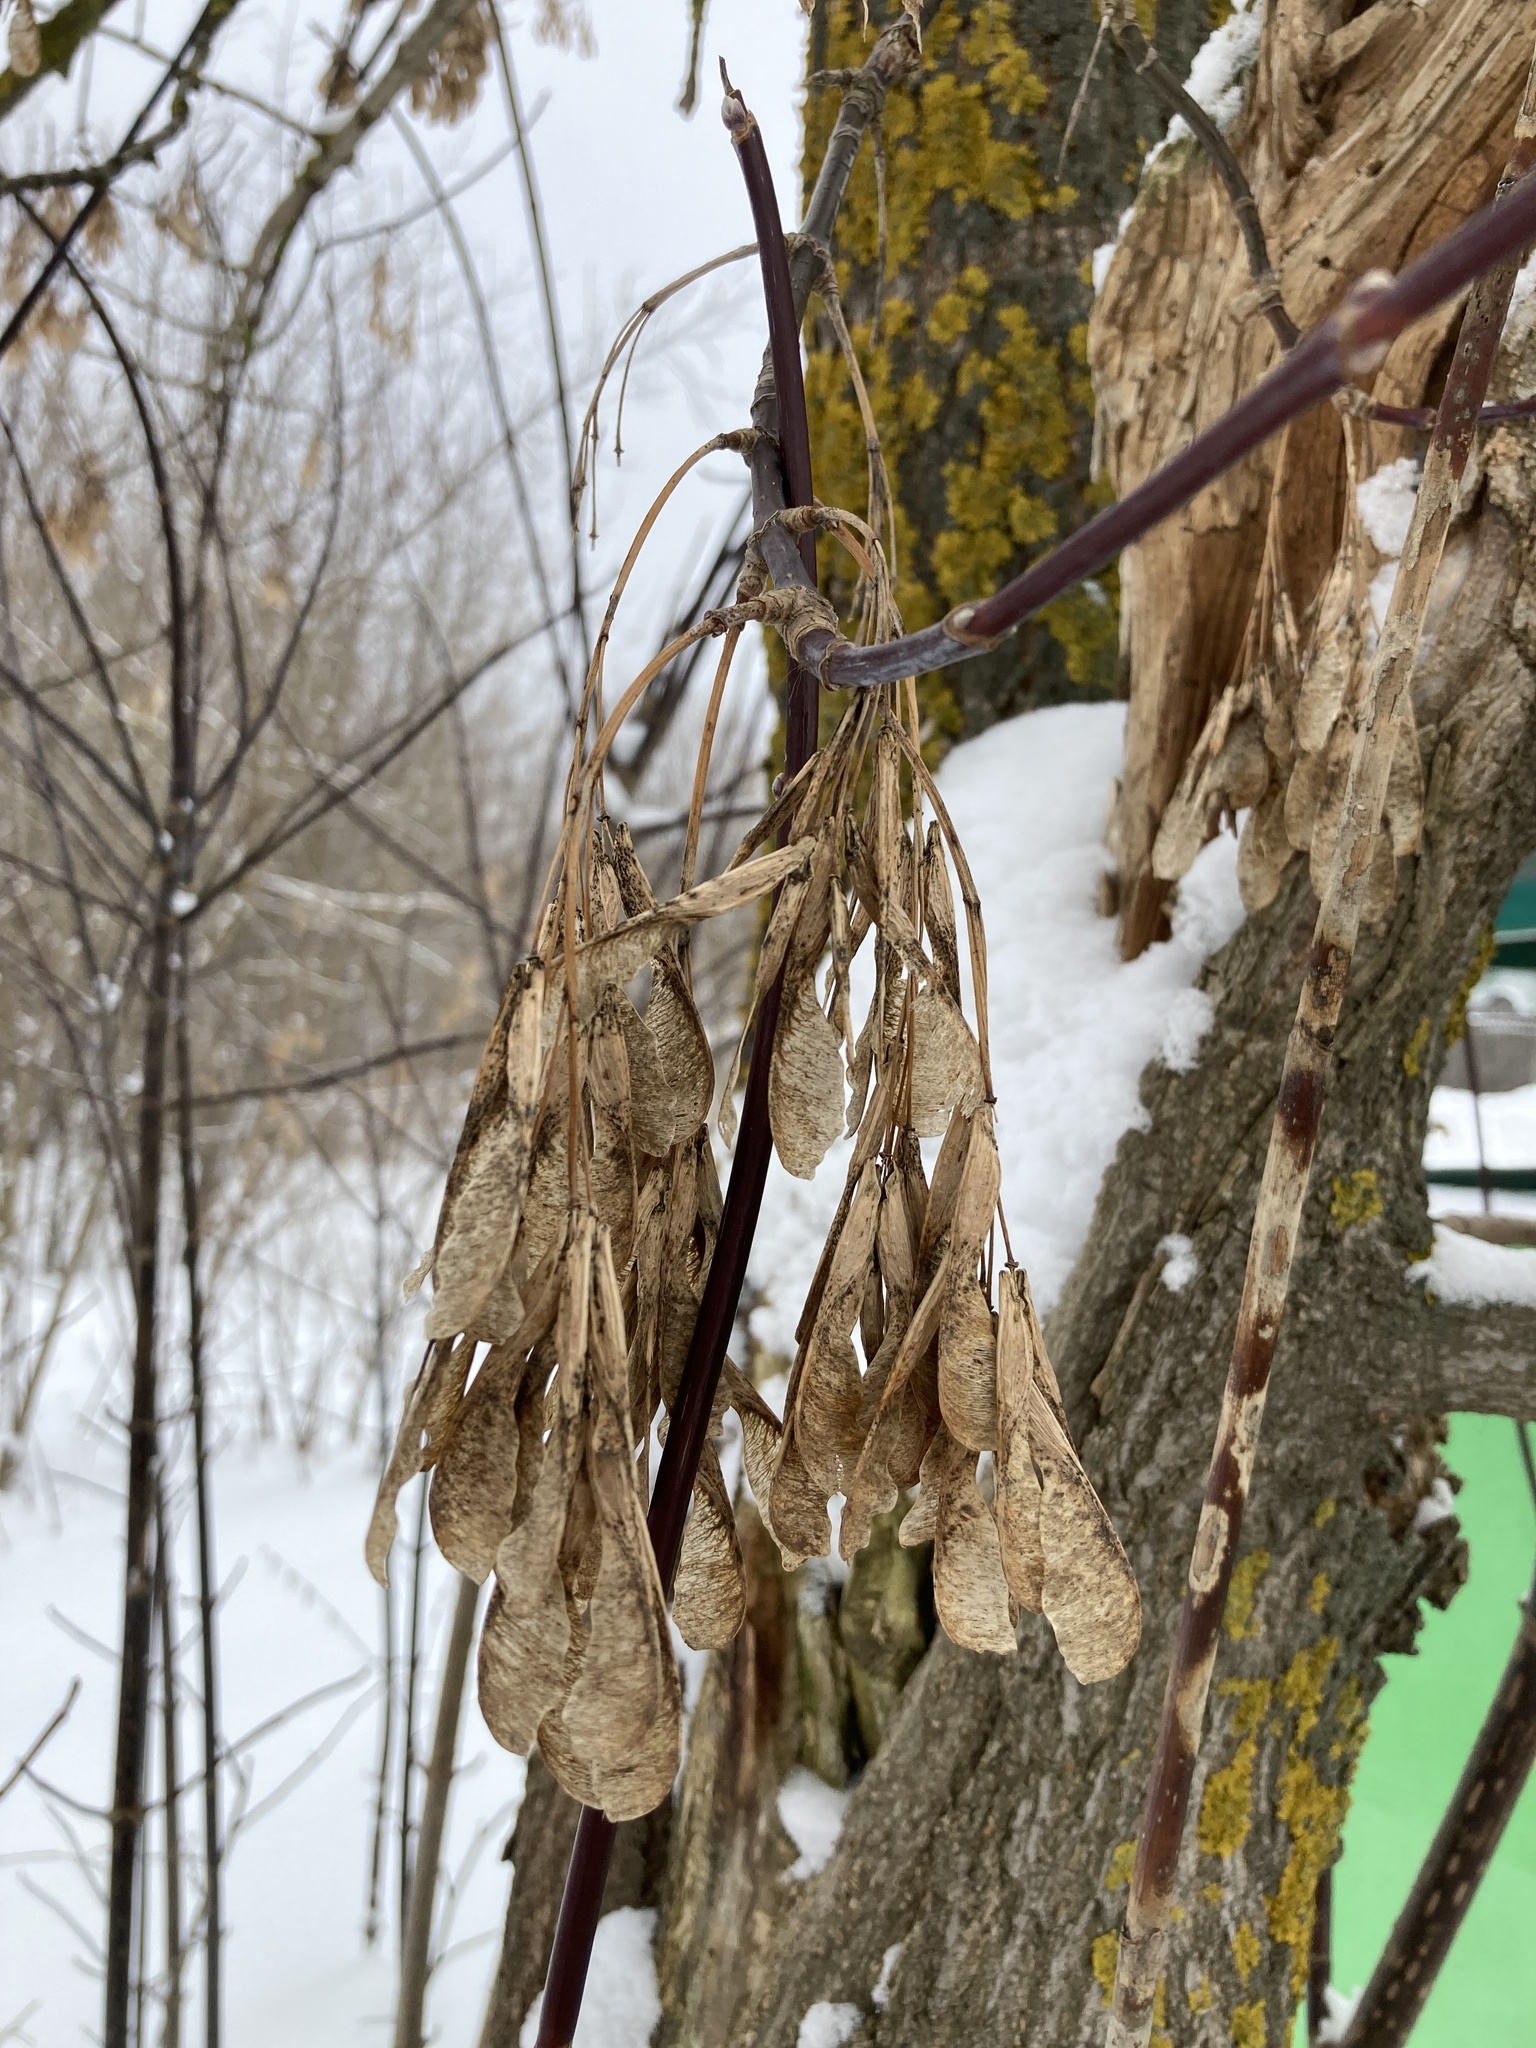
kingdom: Plantae
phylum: Tracheophyta
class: Magnoliopsida
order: Sapindales
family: Sapindaceae
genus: Acer
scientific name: Acer negundo
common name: Ashleaf maple
